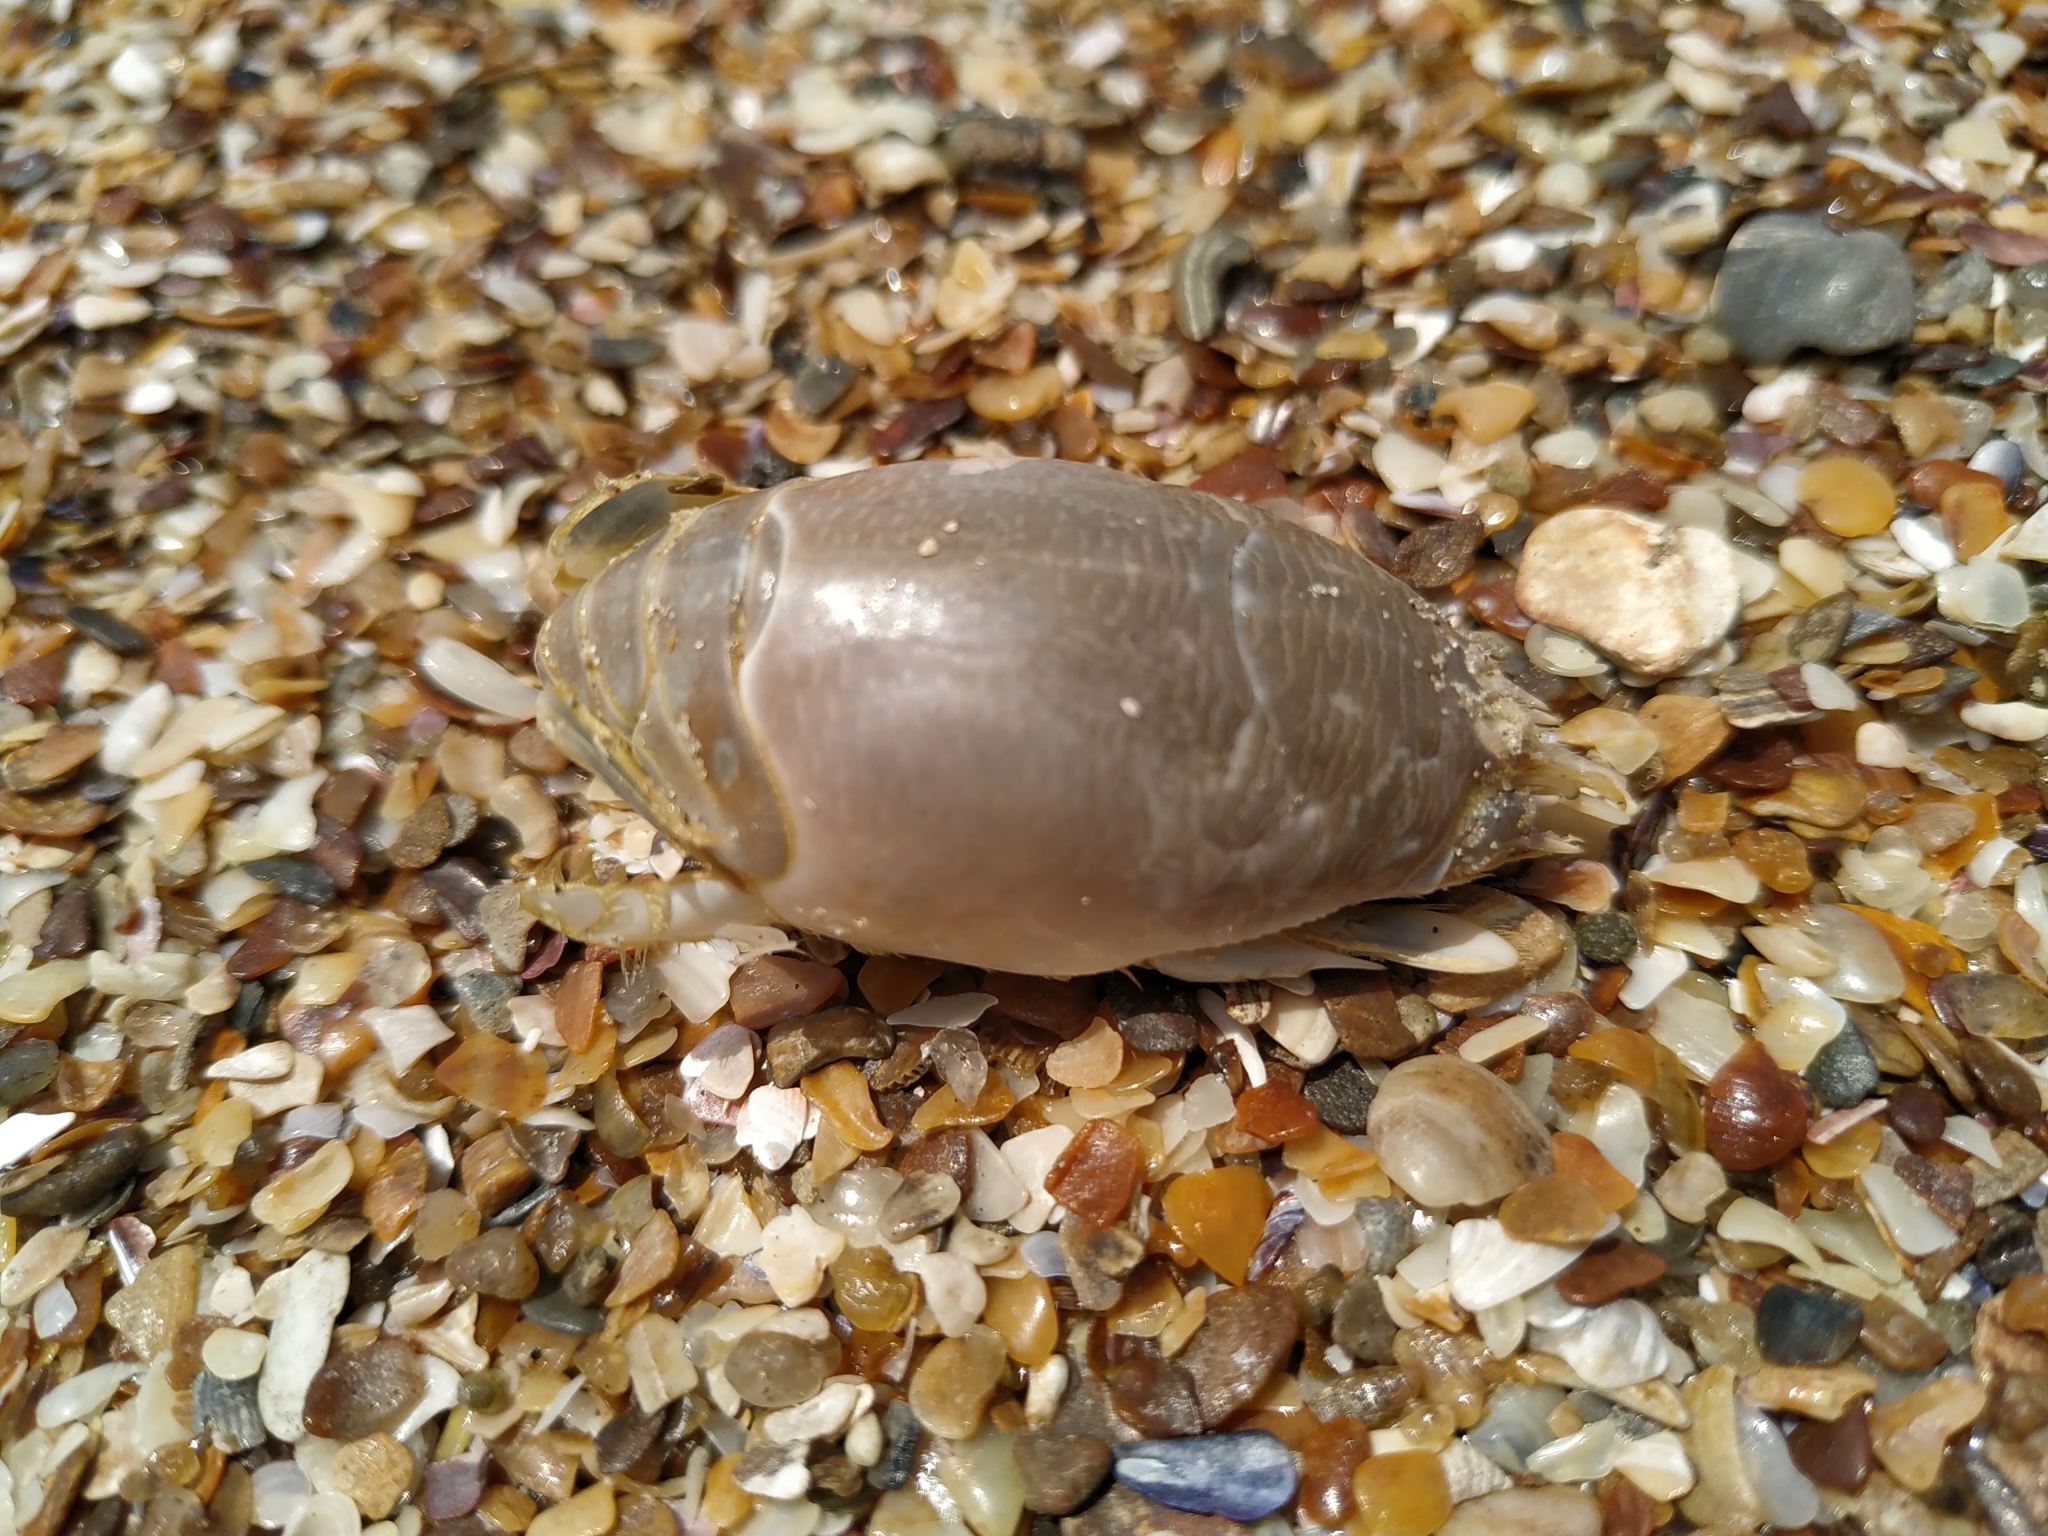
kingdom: Animalia
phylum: Arthropoda
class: Malacostraca
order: Decapoda
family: Hippidae
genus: Emerita
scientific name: Emerita brasiliensis
